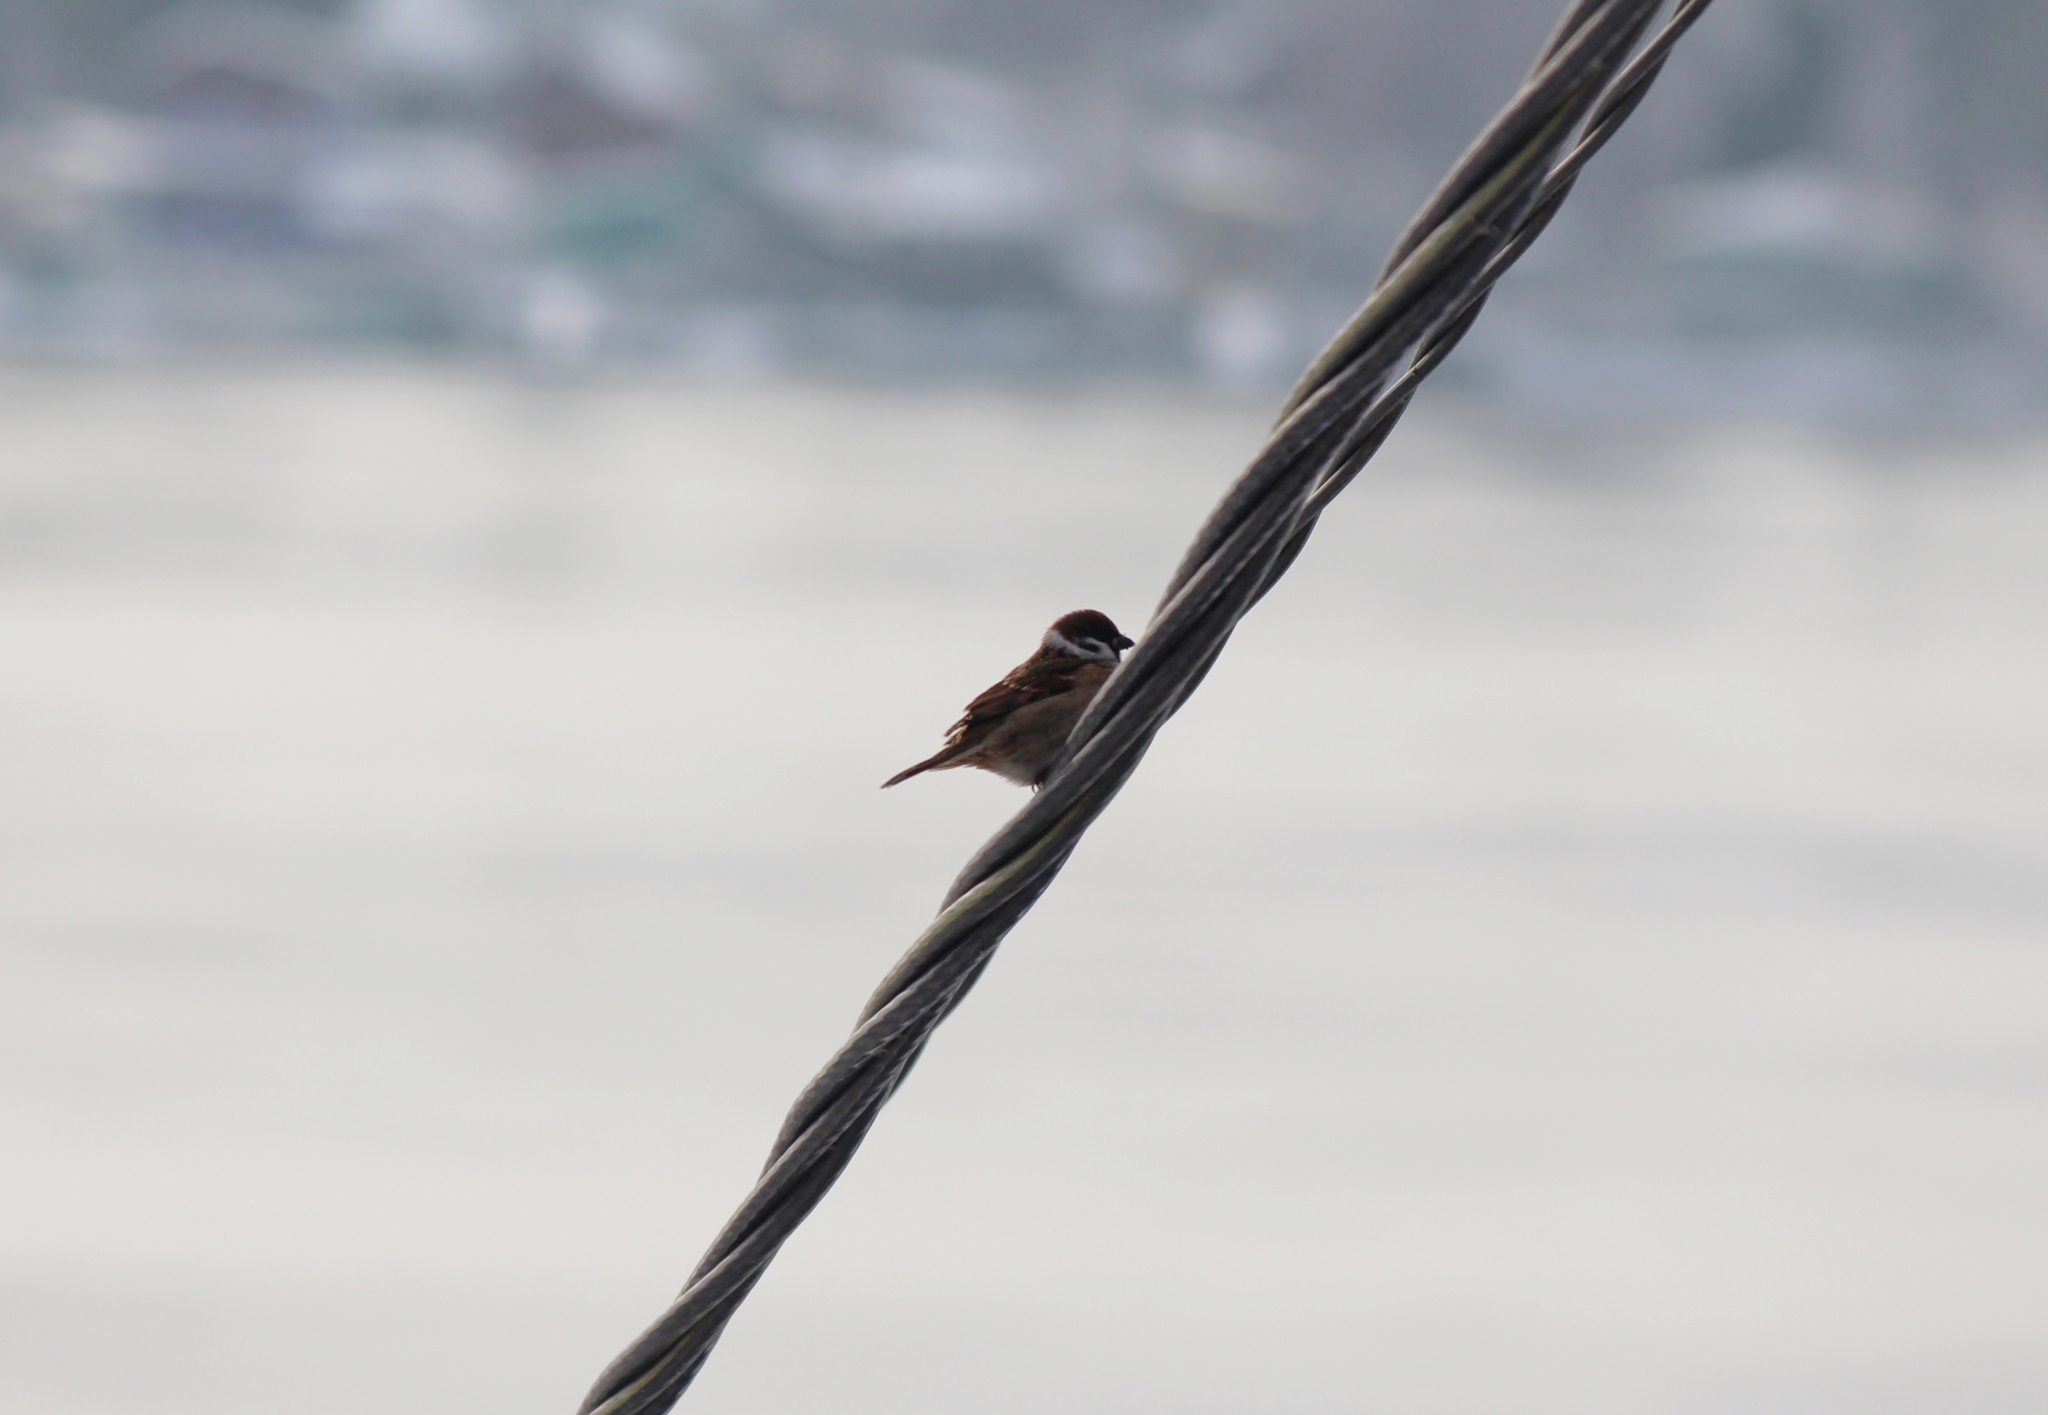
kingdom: Animalia
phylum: Chordata
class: Aves
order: Passeriformes
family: Passeridae
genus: Passer
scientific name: Passer montanus
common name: Eurasian tree sparrow
